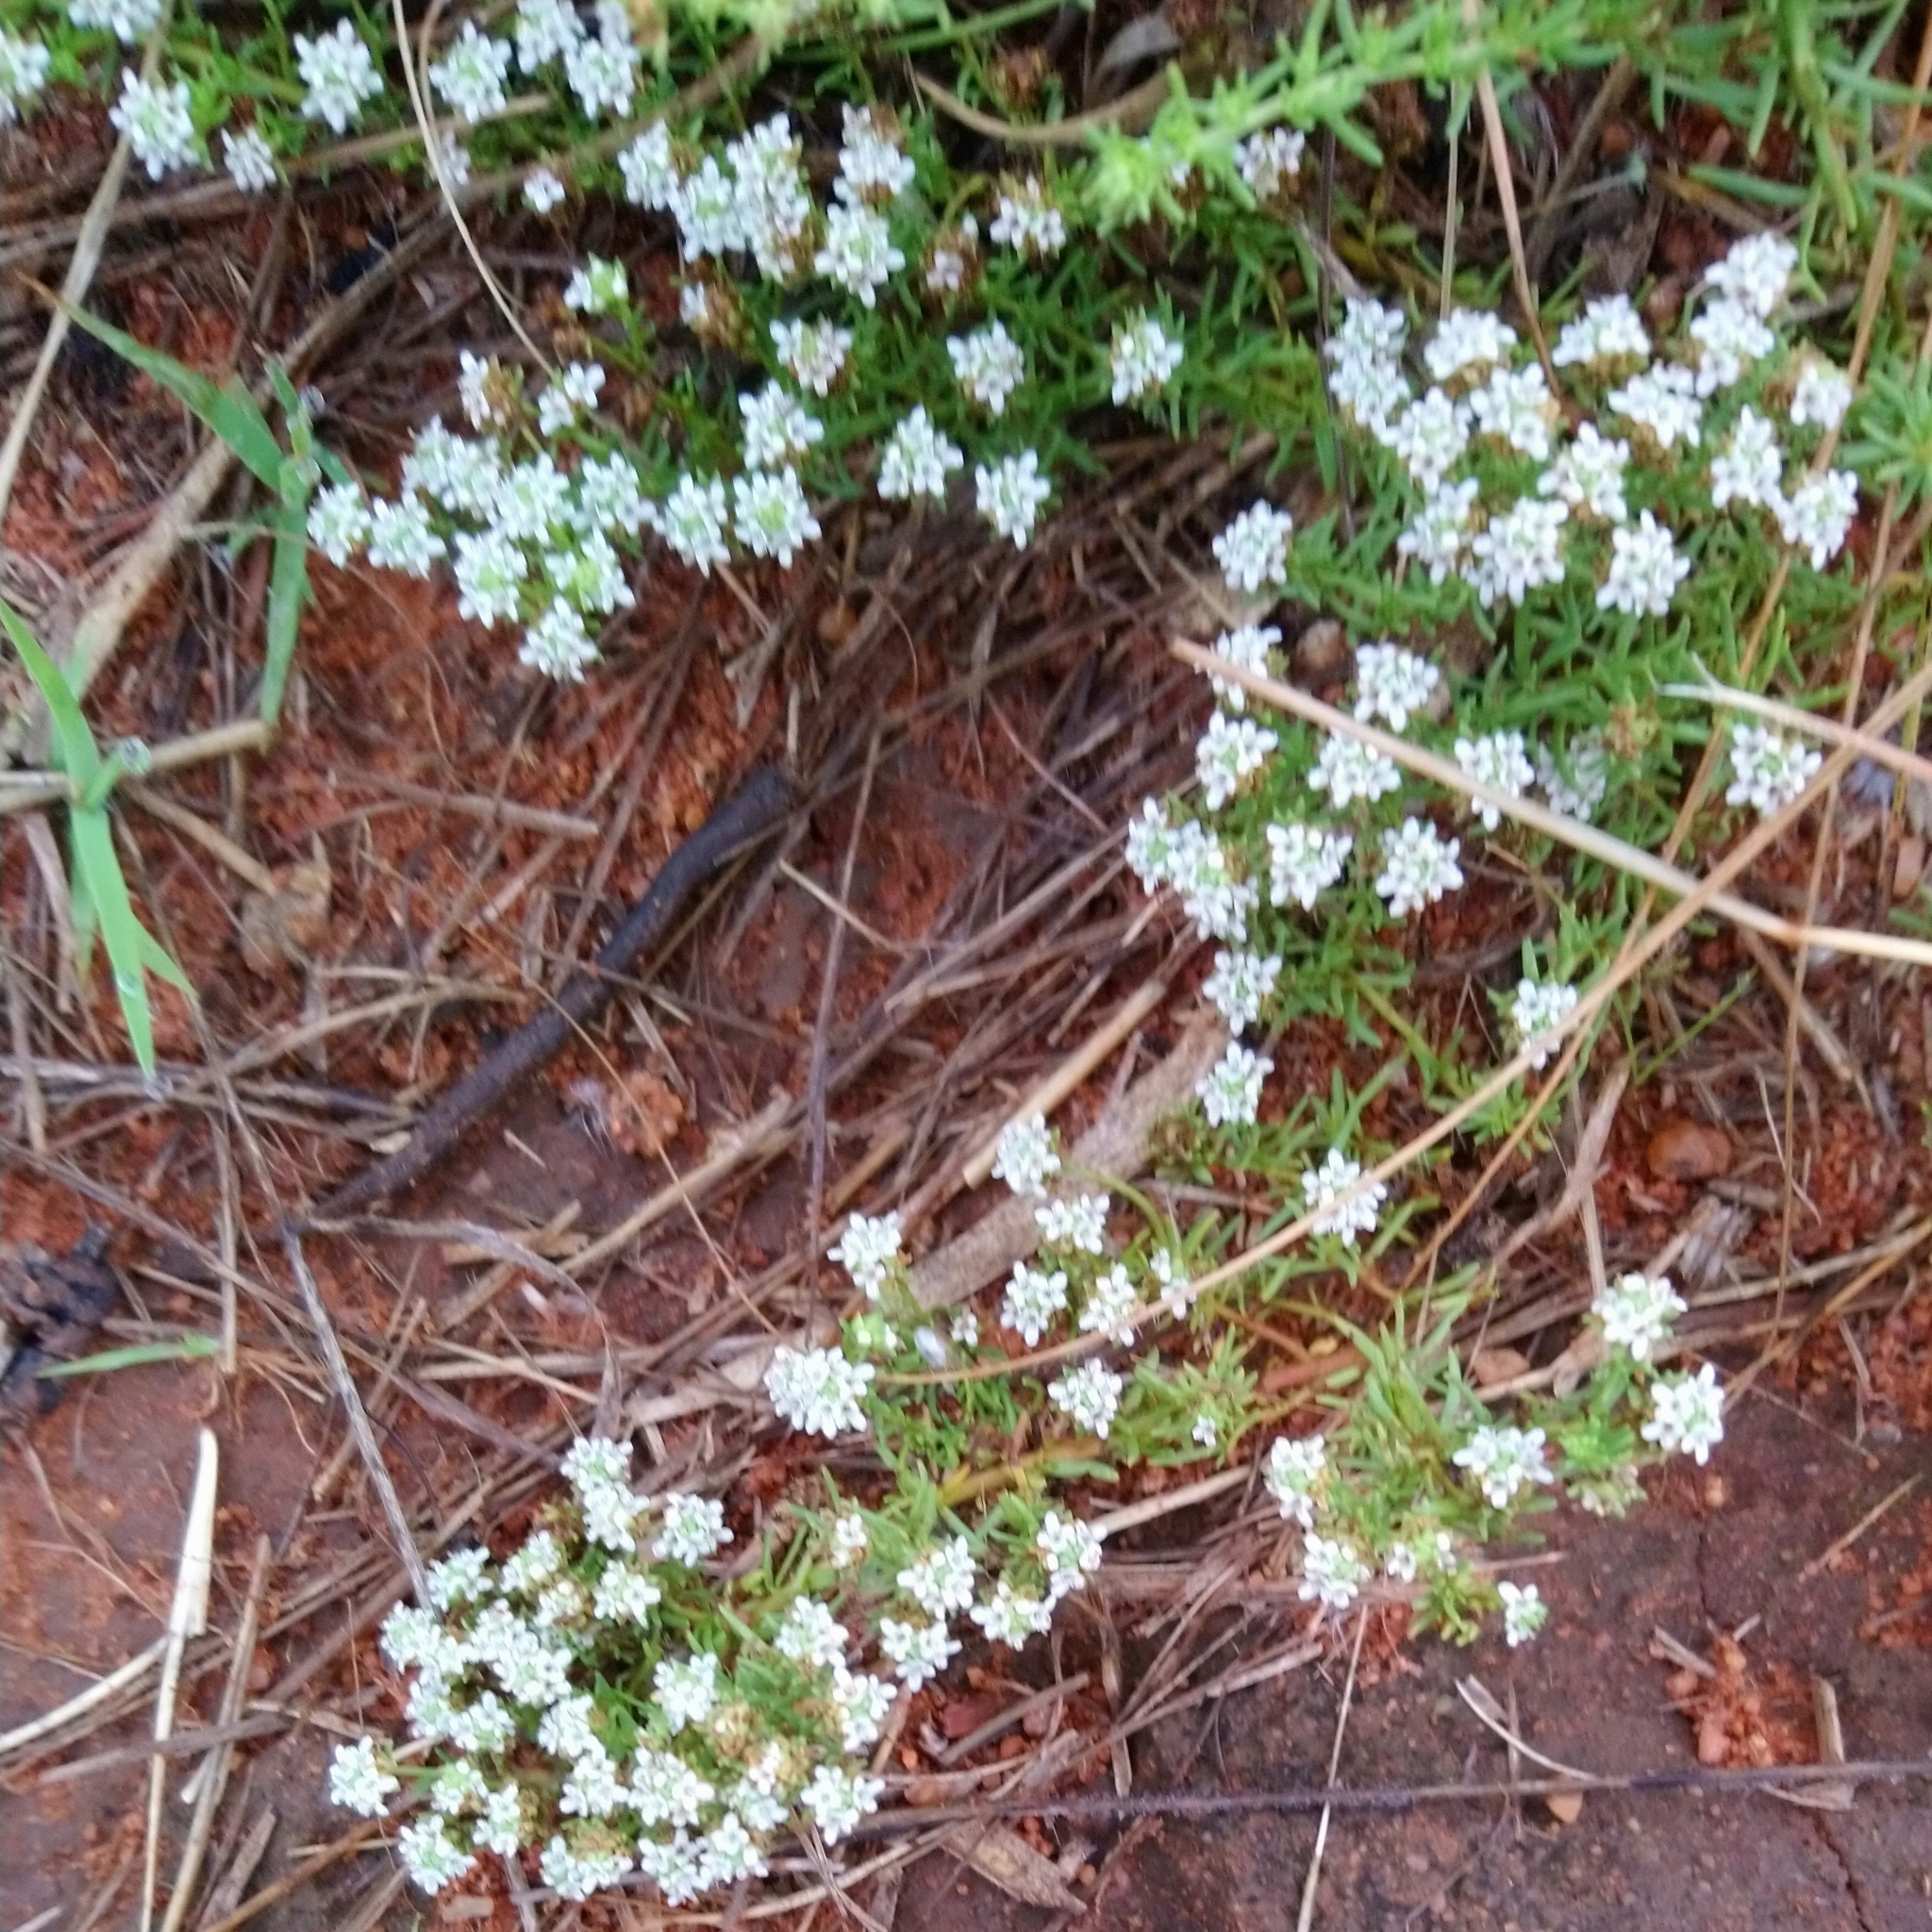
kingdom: Plantae
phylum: Tracheophyta
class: Magnoliopsida
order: Lamiales
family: Scrophulariaceae
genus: Selago
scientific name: Selago densiflora
